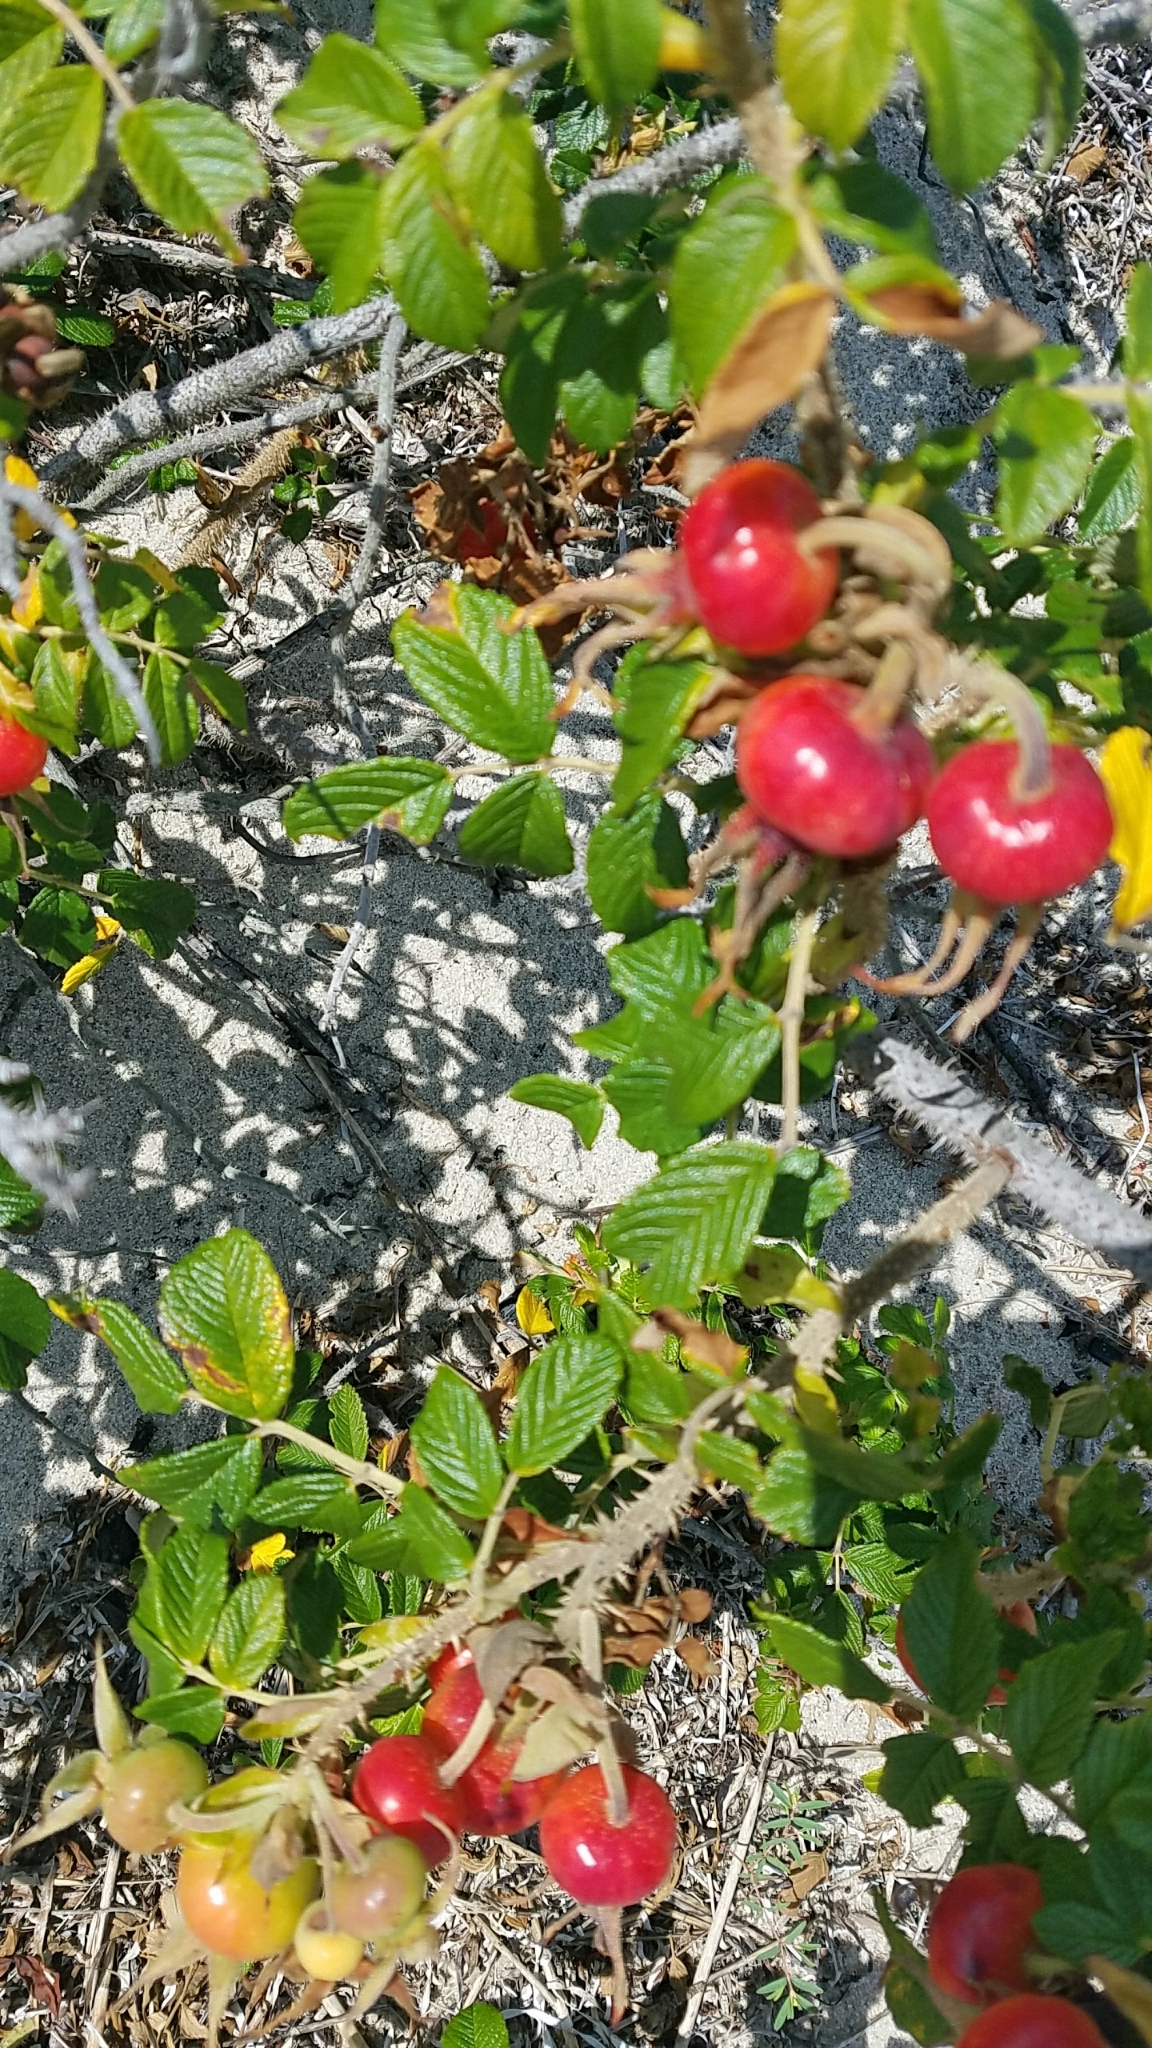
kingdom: Plantae
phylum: Tracheophyta
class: Magnoliopsida
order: Rosales
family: Rosaceae
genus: Rosa
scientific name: Rosa rugosa
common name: Japanese rose
